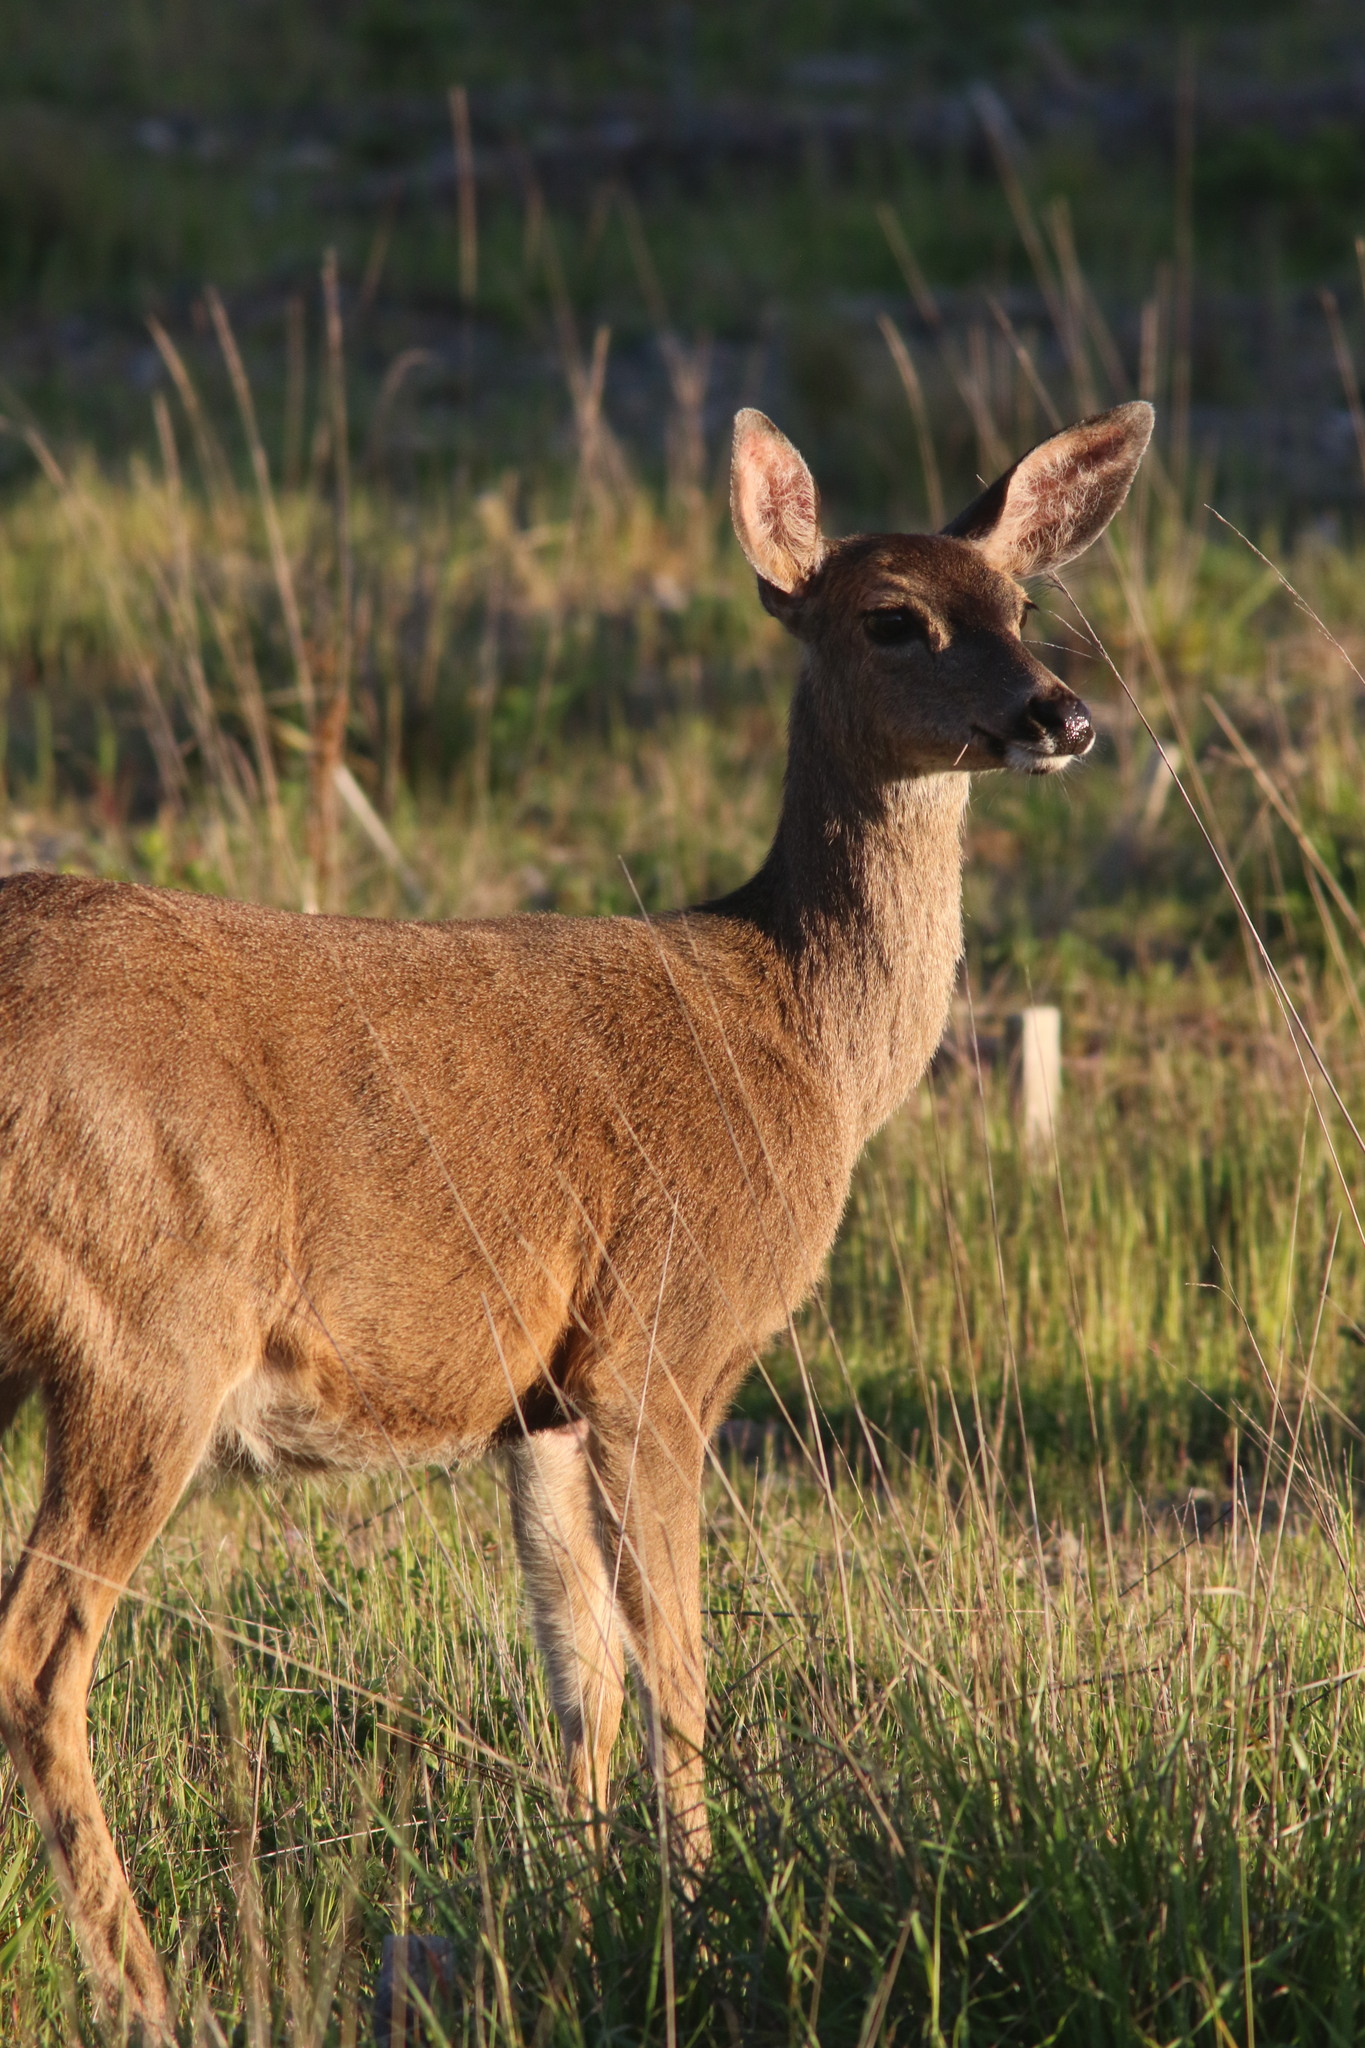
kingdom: Animalia
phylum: Chordata
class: Mammalia
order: Artiodactyla
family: Cervidae
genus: Odocoileus
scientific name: Odocoileus hemionus
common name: Mule deer
